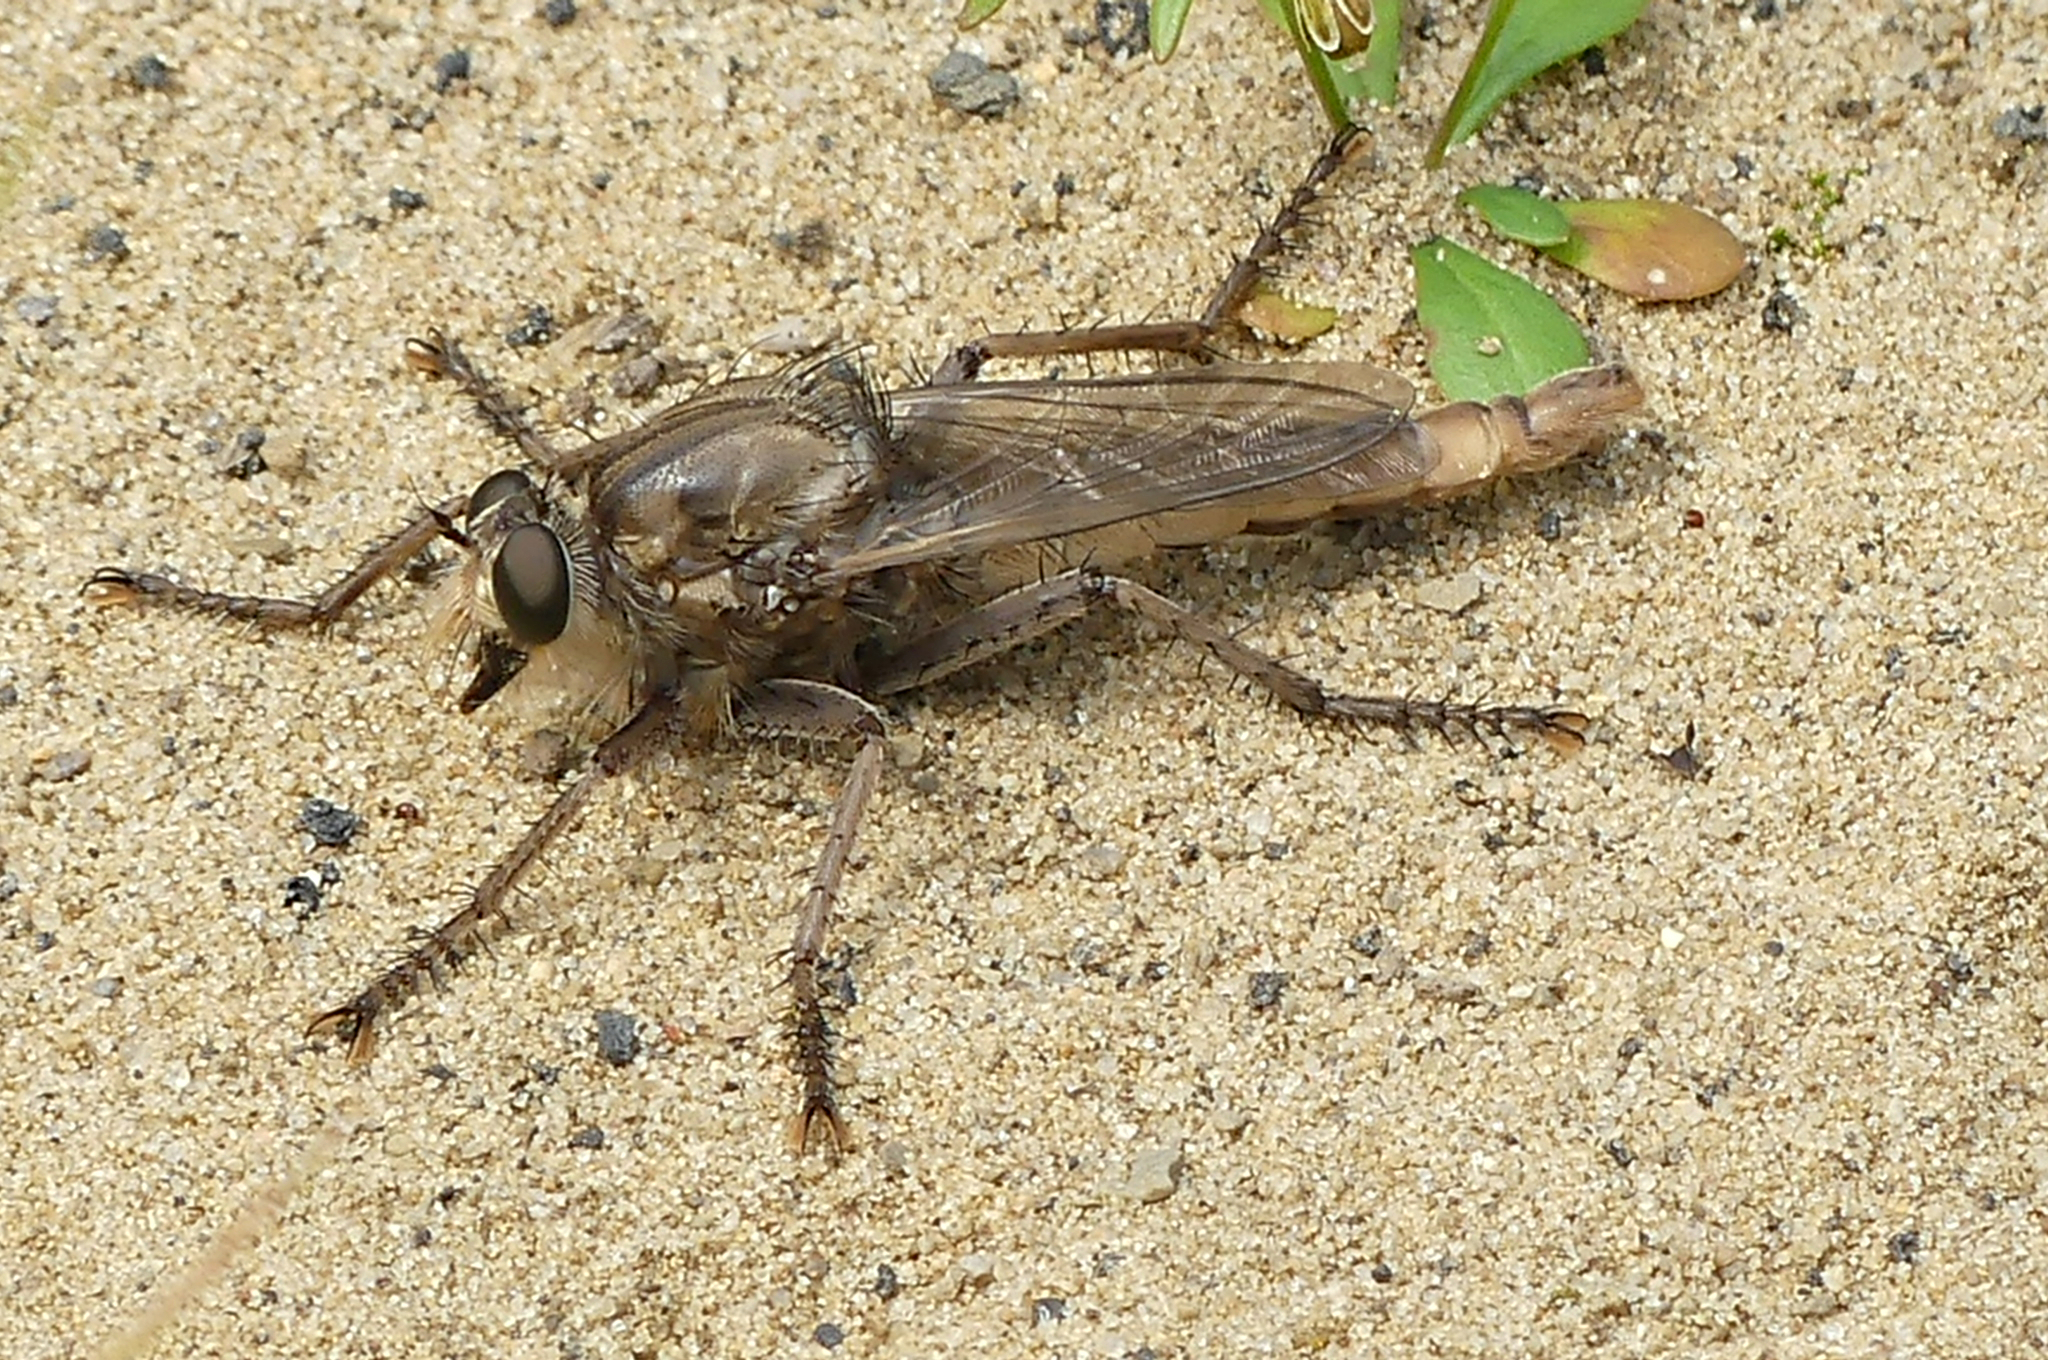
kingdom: Animalia
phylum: Arthropoda
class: Insecta
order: Diptera
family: Asilidae
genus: Proctacanthus
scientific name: Proctacanthus milbertii
